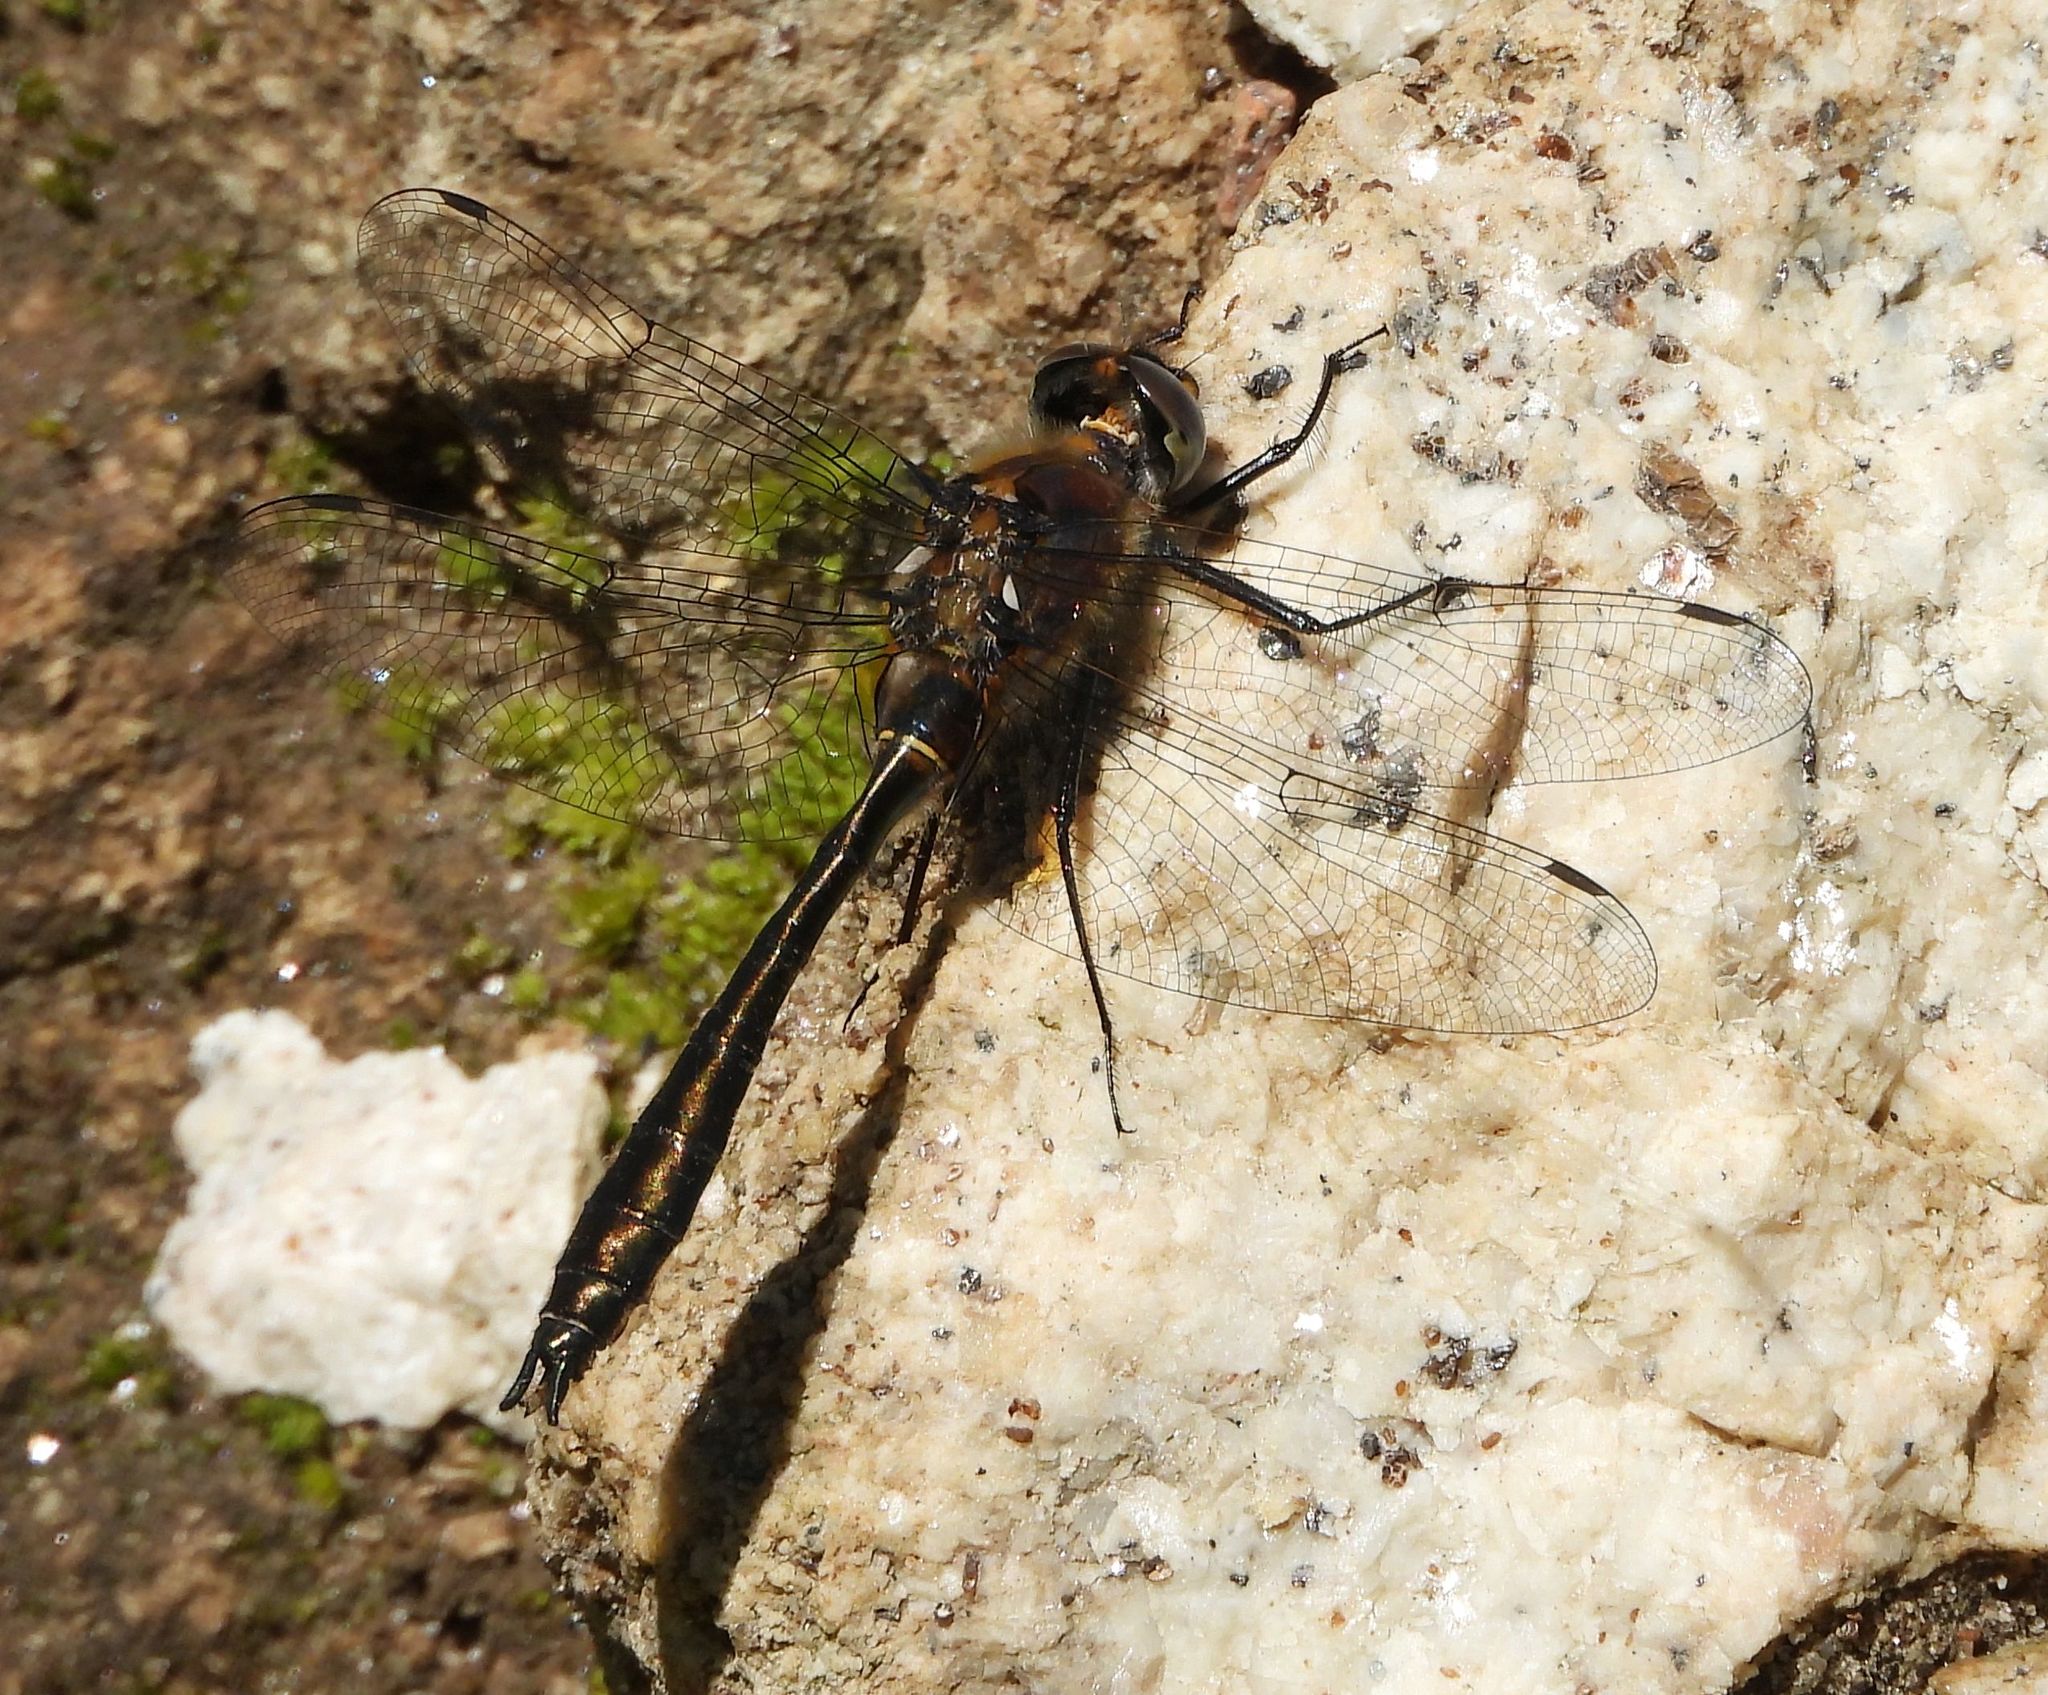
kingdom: Animalia
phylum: Arthropoda
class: Insecta
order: Odonata
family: Corduliidae
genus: Cordulia
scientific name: Cordulia shurtleffii
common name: American emerald
